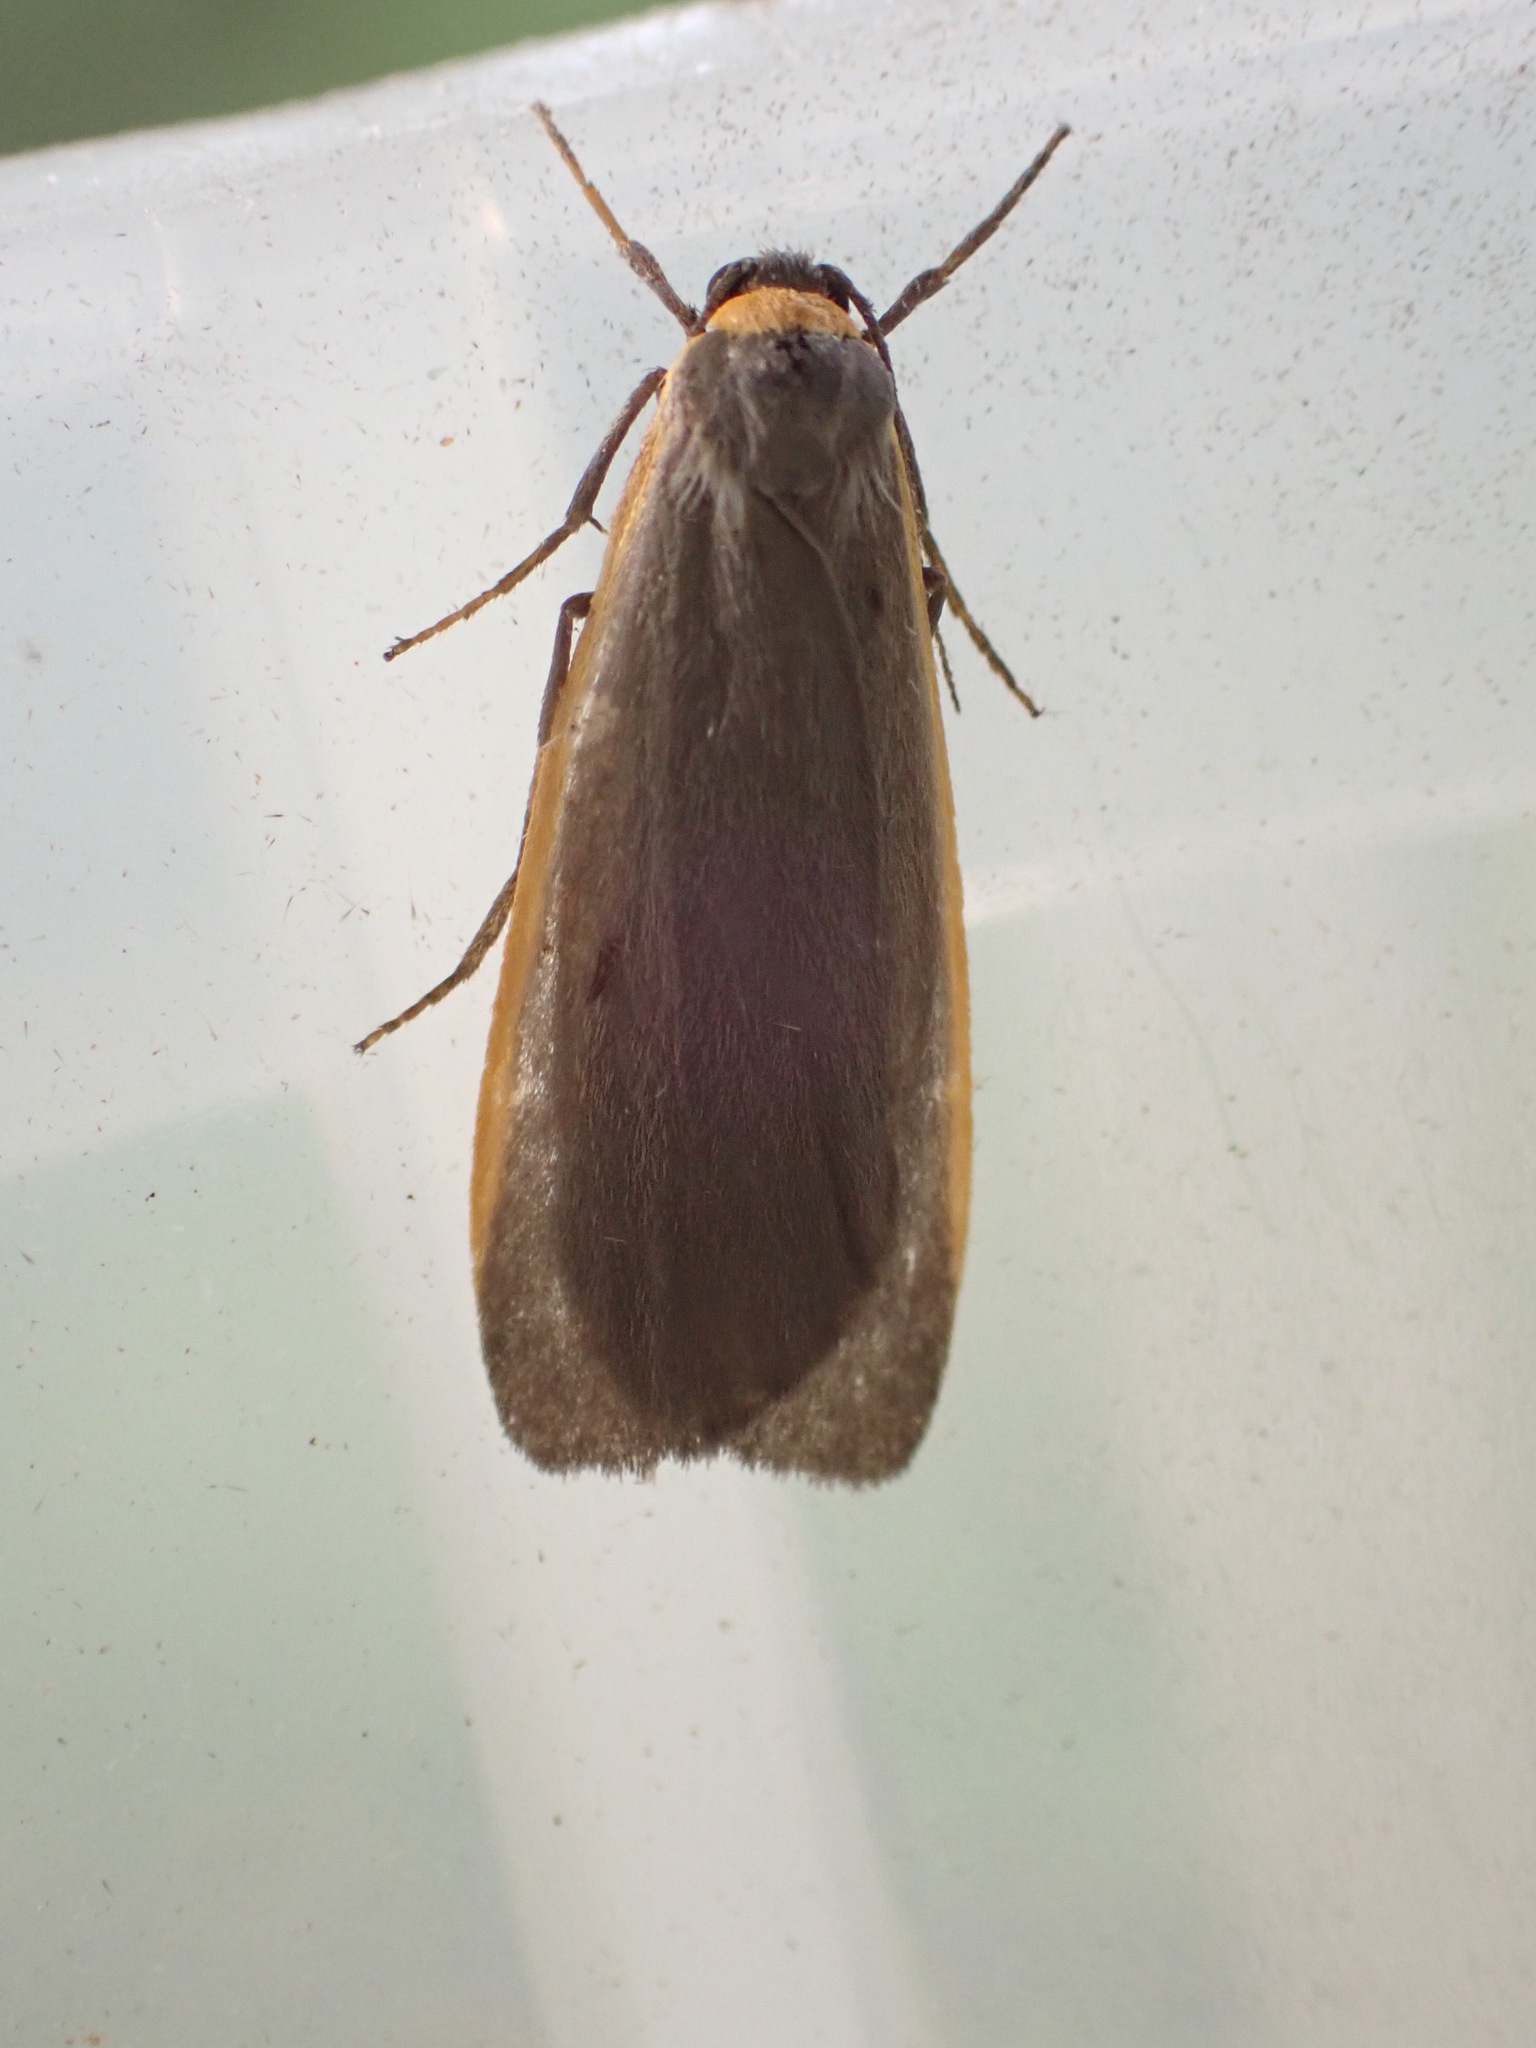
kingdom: Animalia
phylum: Arthropoda
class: Insecta
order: Lepidoptera
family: Erebidae
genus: Manulea
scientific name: Manulea bicolor
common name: Bicolored moth
